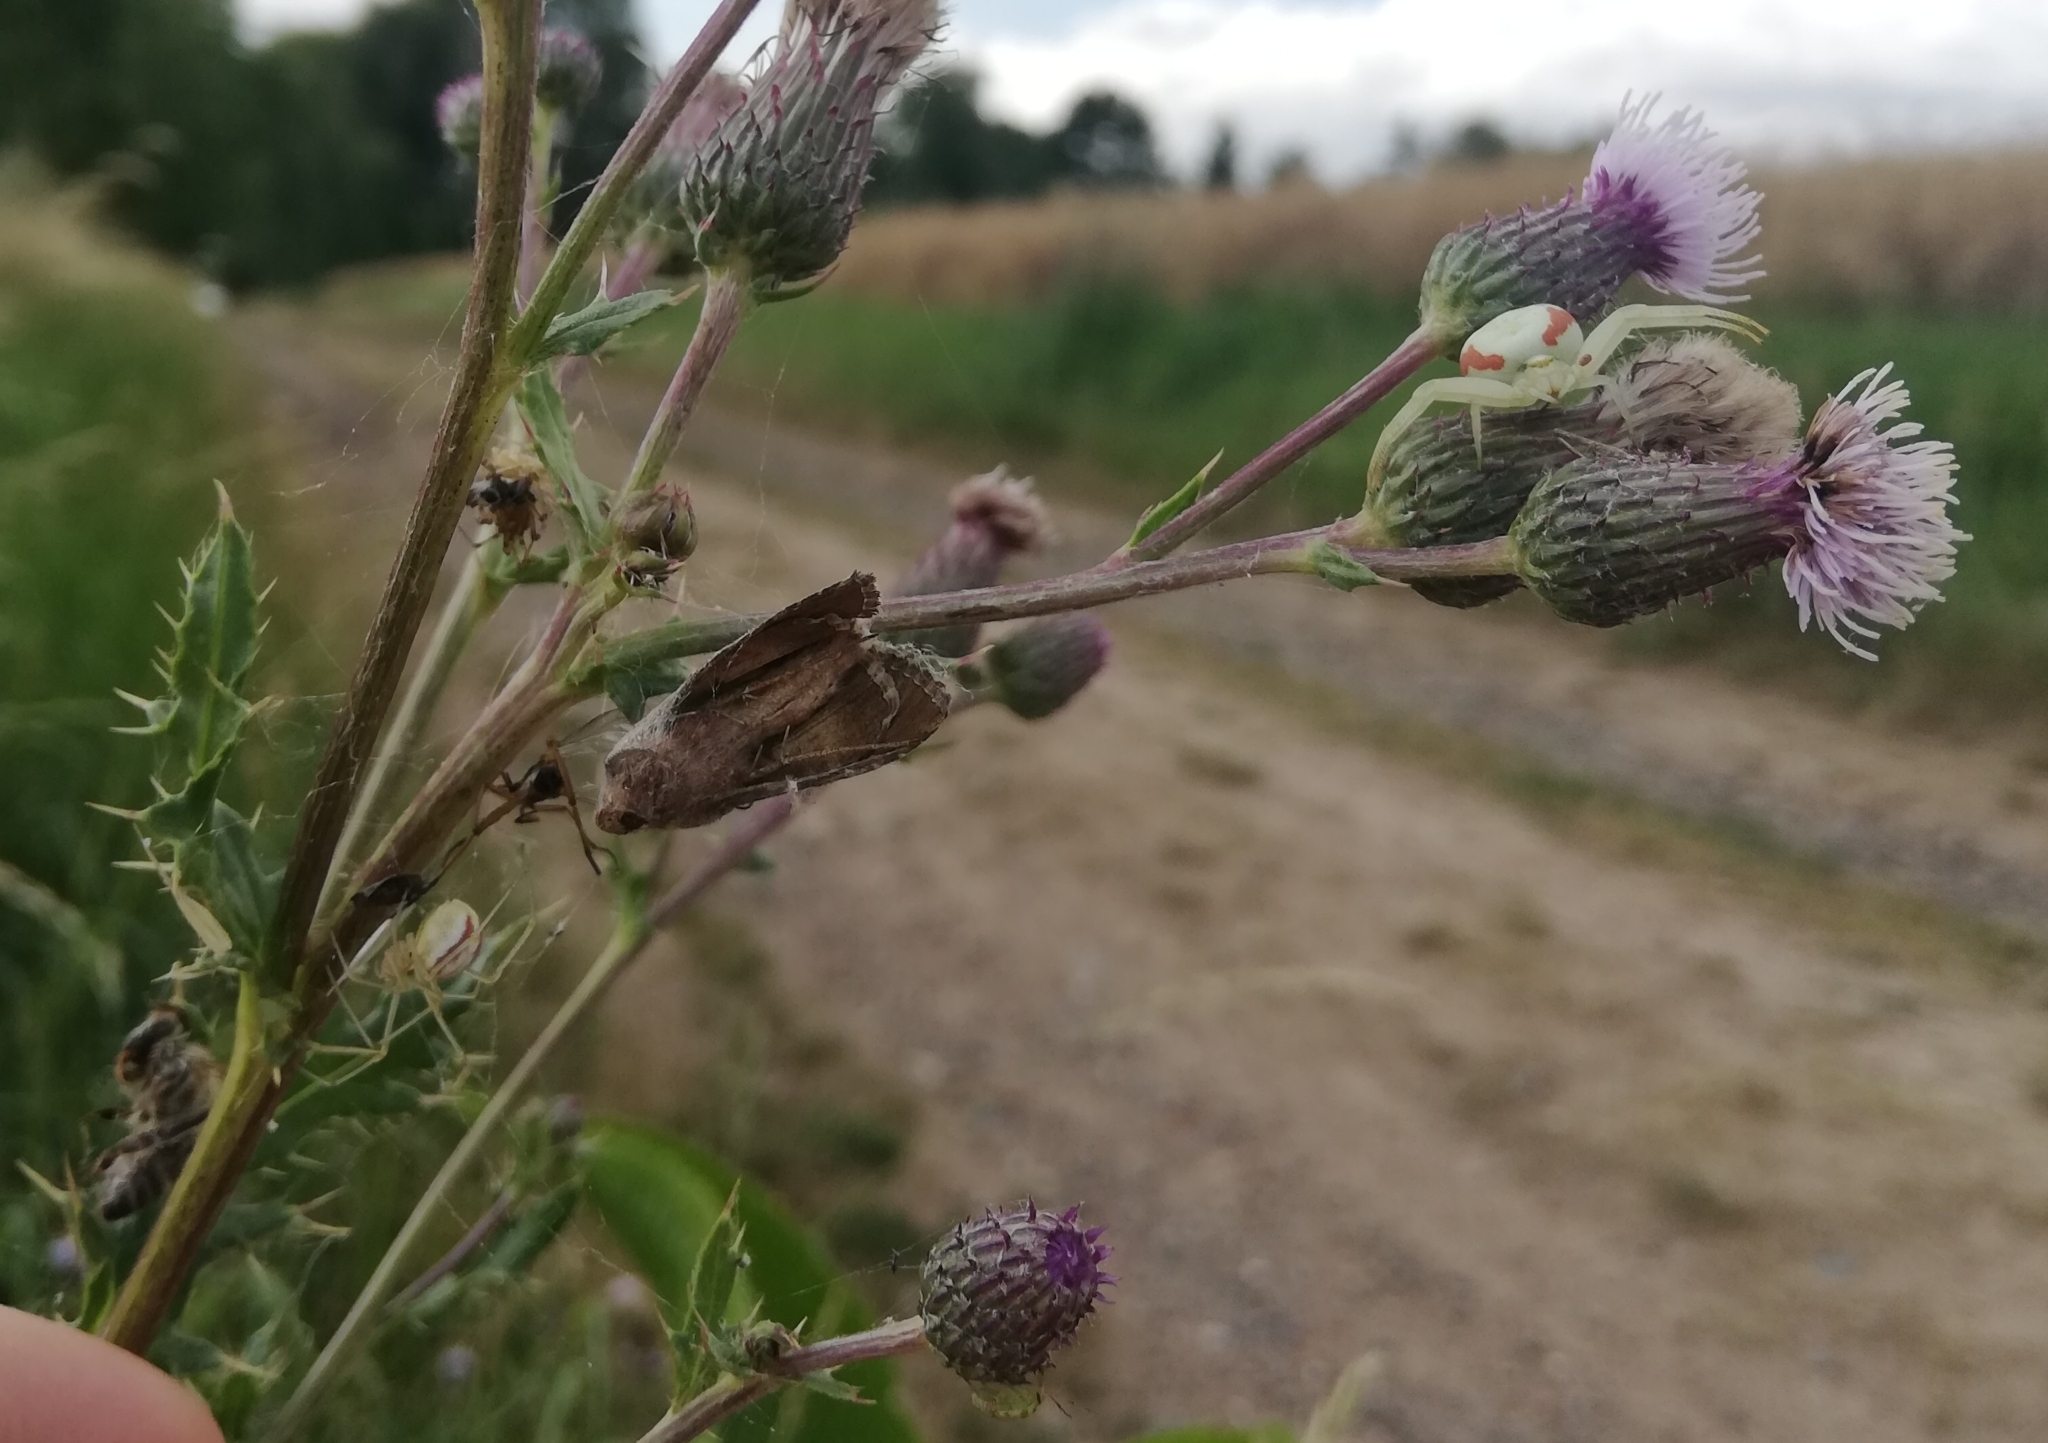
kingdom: Animalia
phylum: Arthropoda
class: Arachnida
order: Araneae
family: Thomisidae
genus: Misumena
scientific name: Misumena vatia
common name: Goldenrod crab spider
